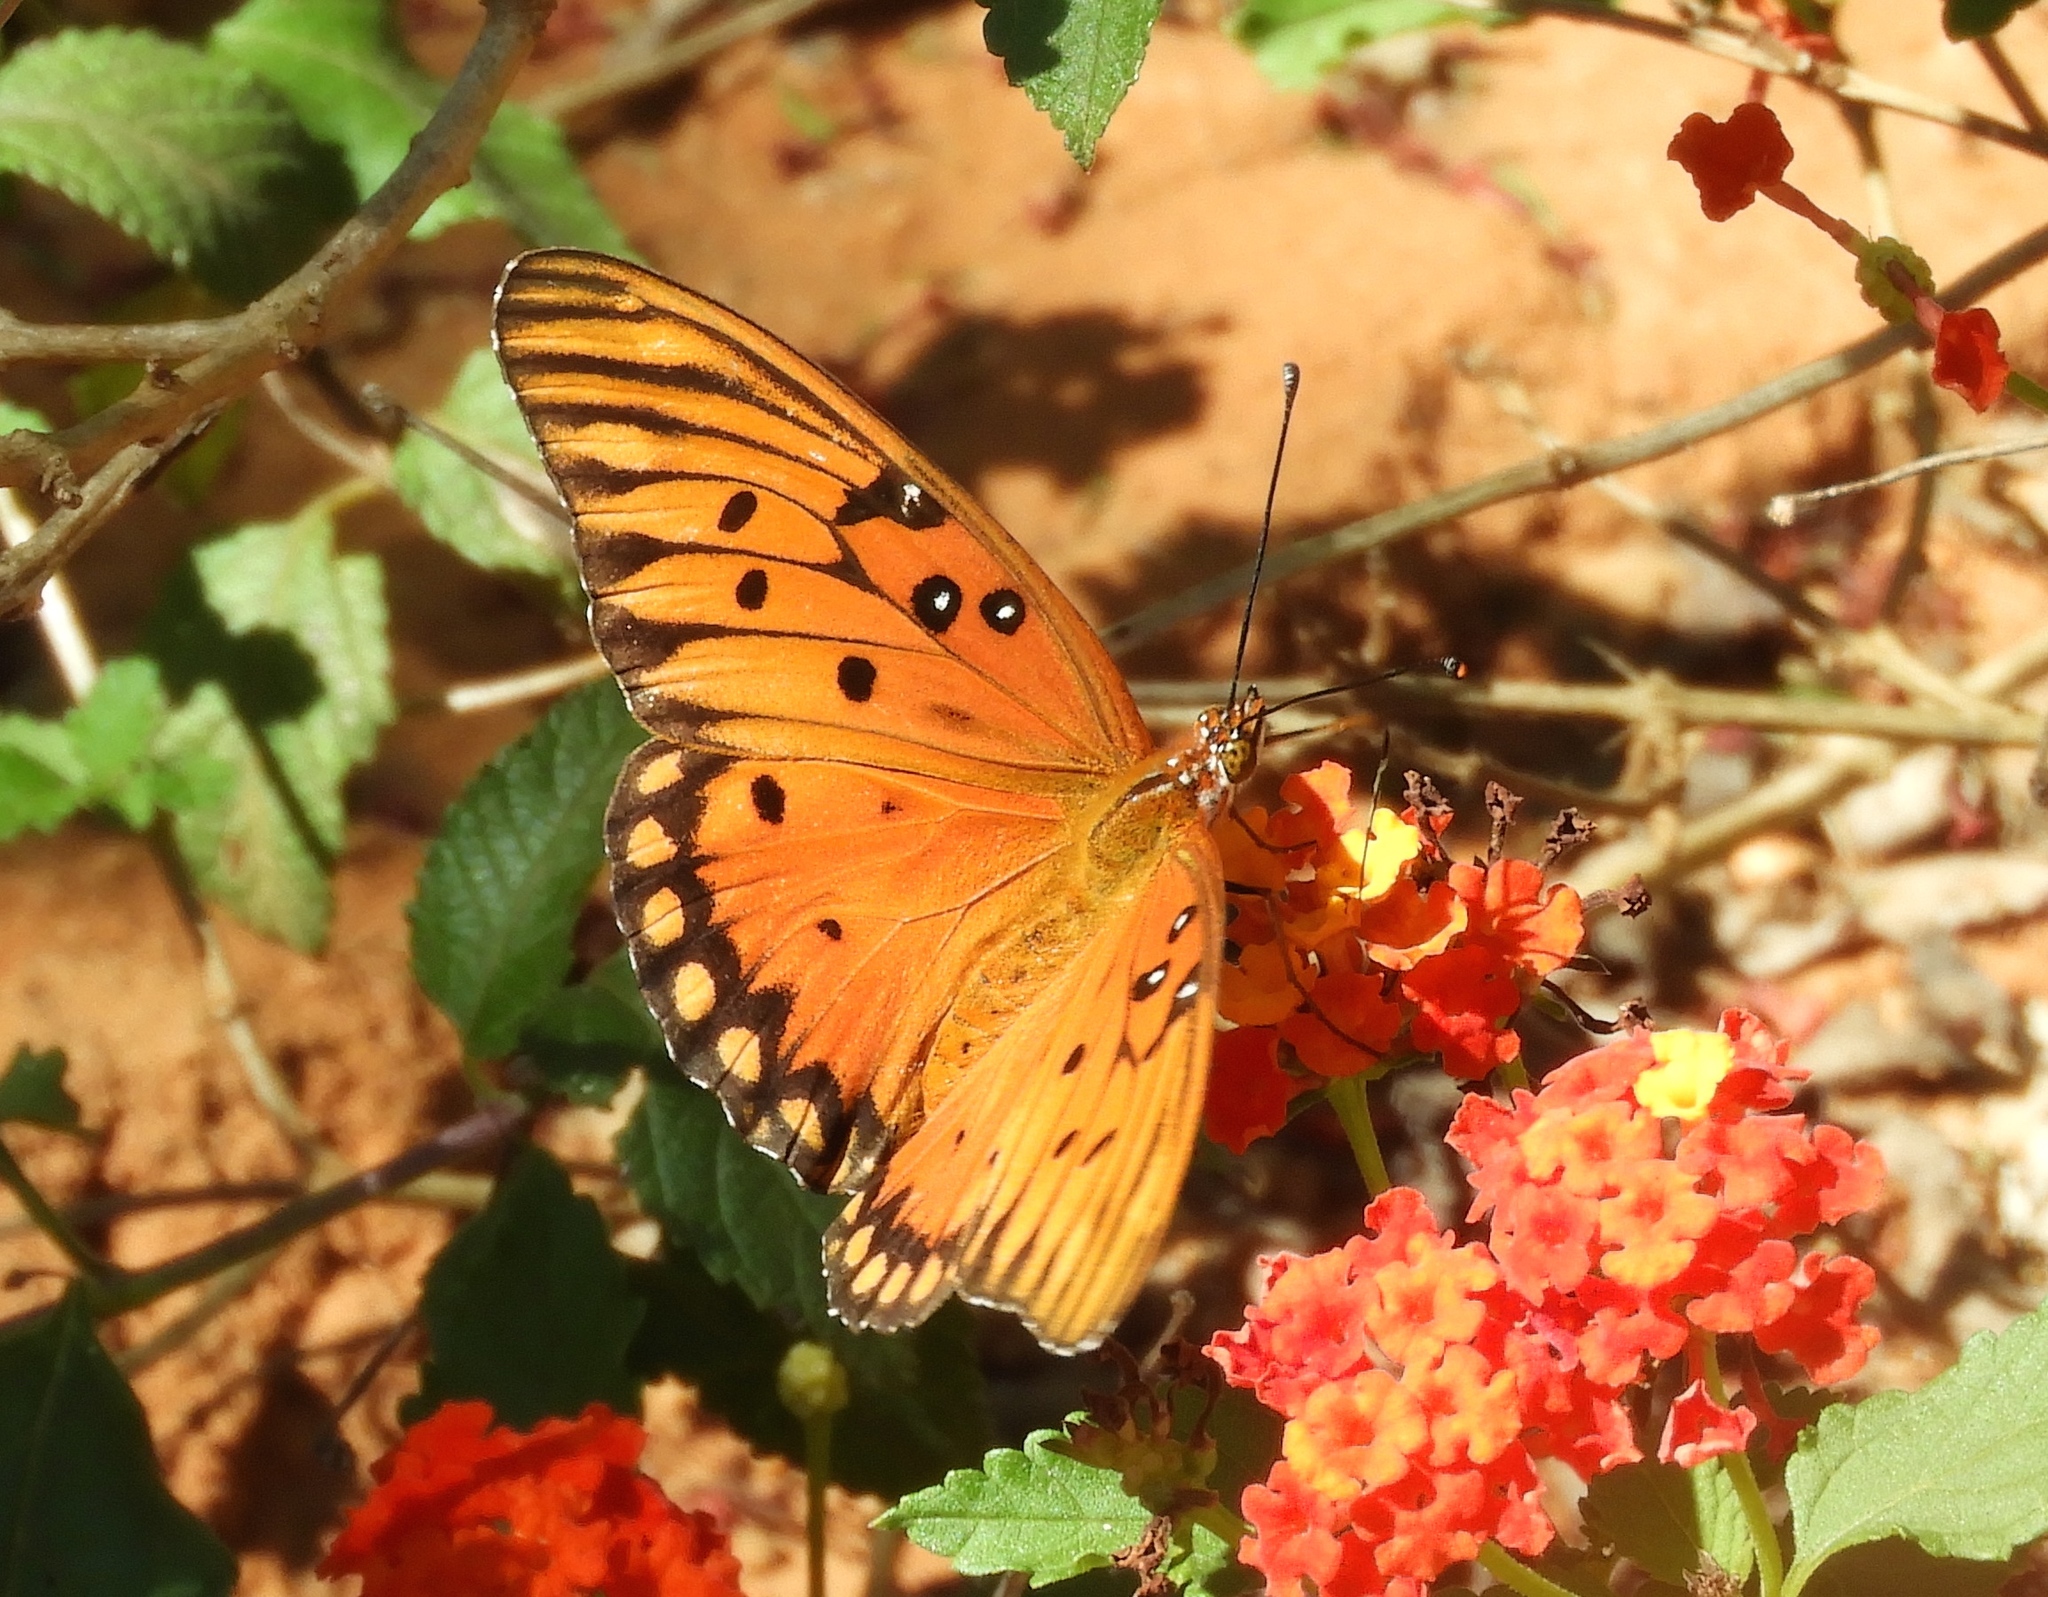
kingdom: Animalia
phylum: Arthropoda
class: Insecta
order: Lepidoptera
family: Nymphalidae
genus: Dione
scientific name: Dione vanillae
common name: Gulf fritillary
